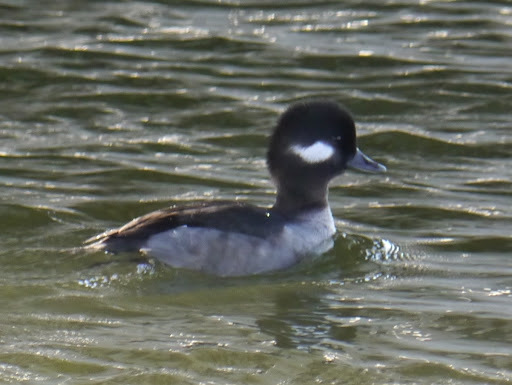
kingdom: Animalia
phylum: Chordata
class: Aves
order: Anseriformes
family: Anatidae
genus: Bucephala
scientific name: Bucephala albeola
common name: Bufflehead
